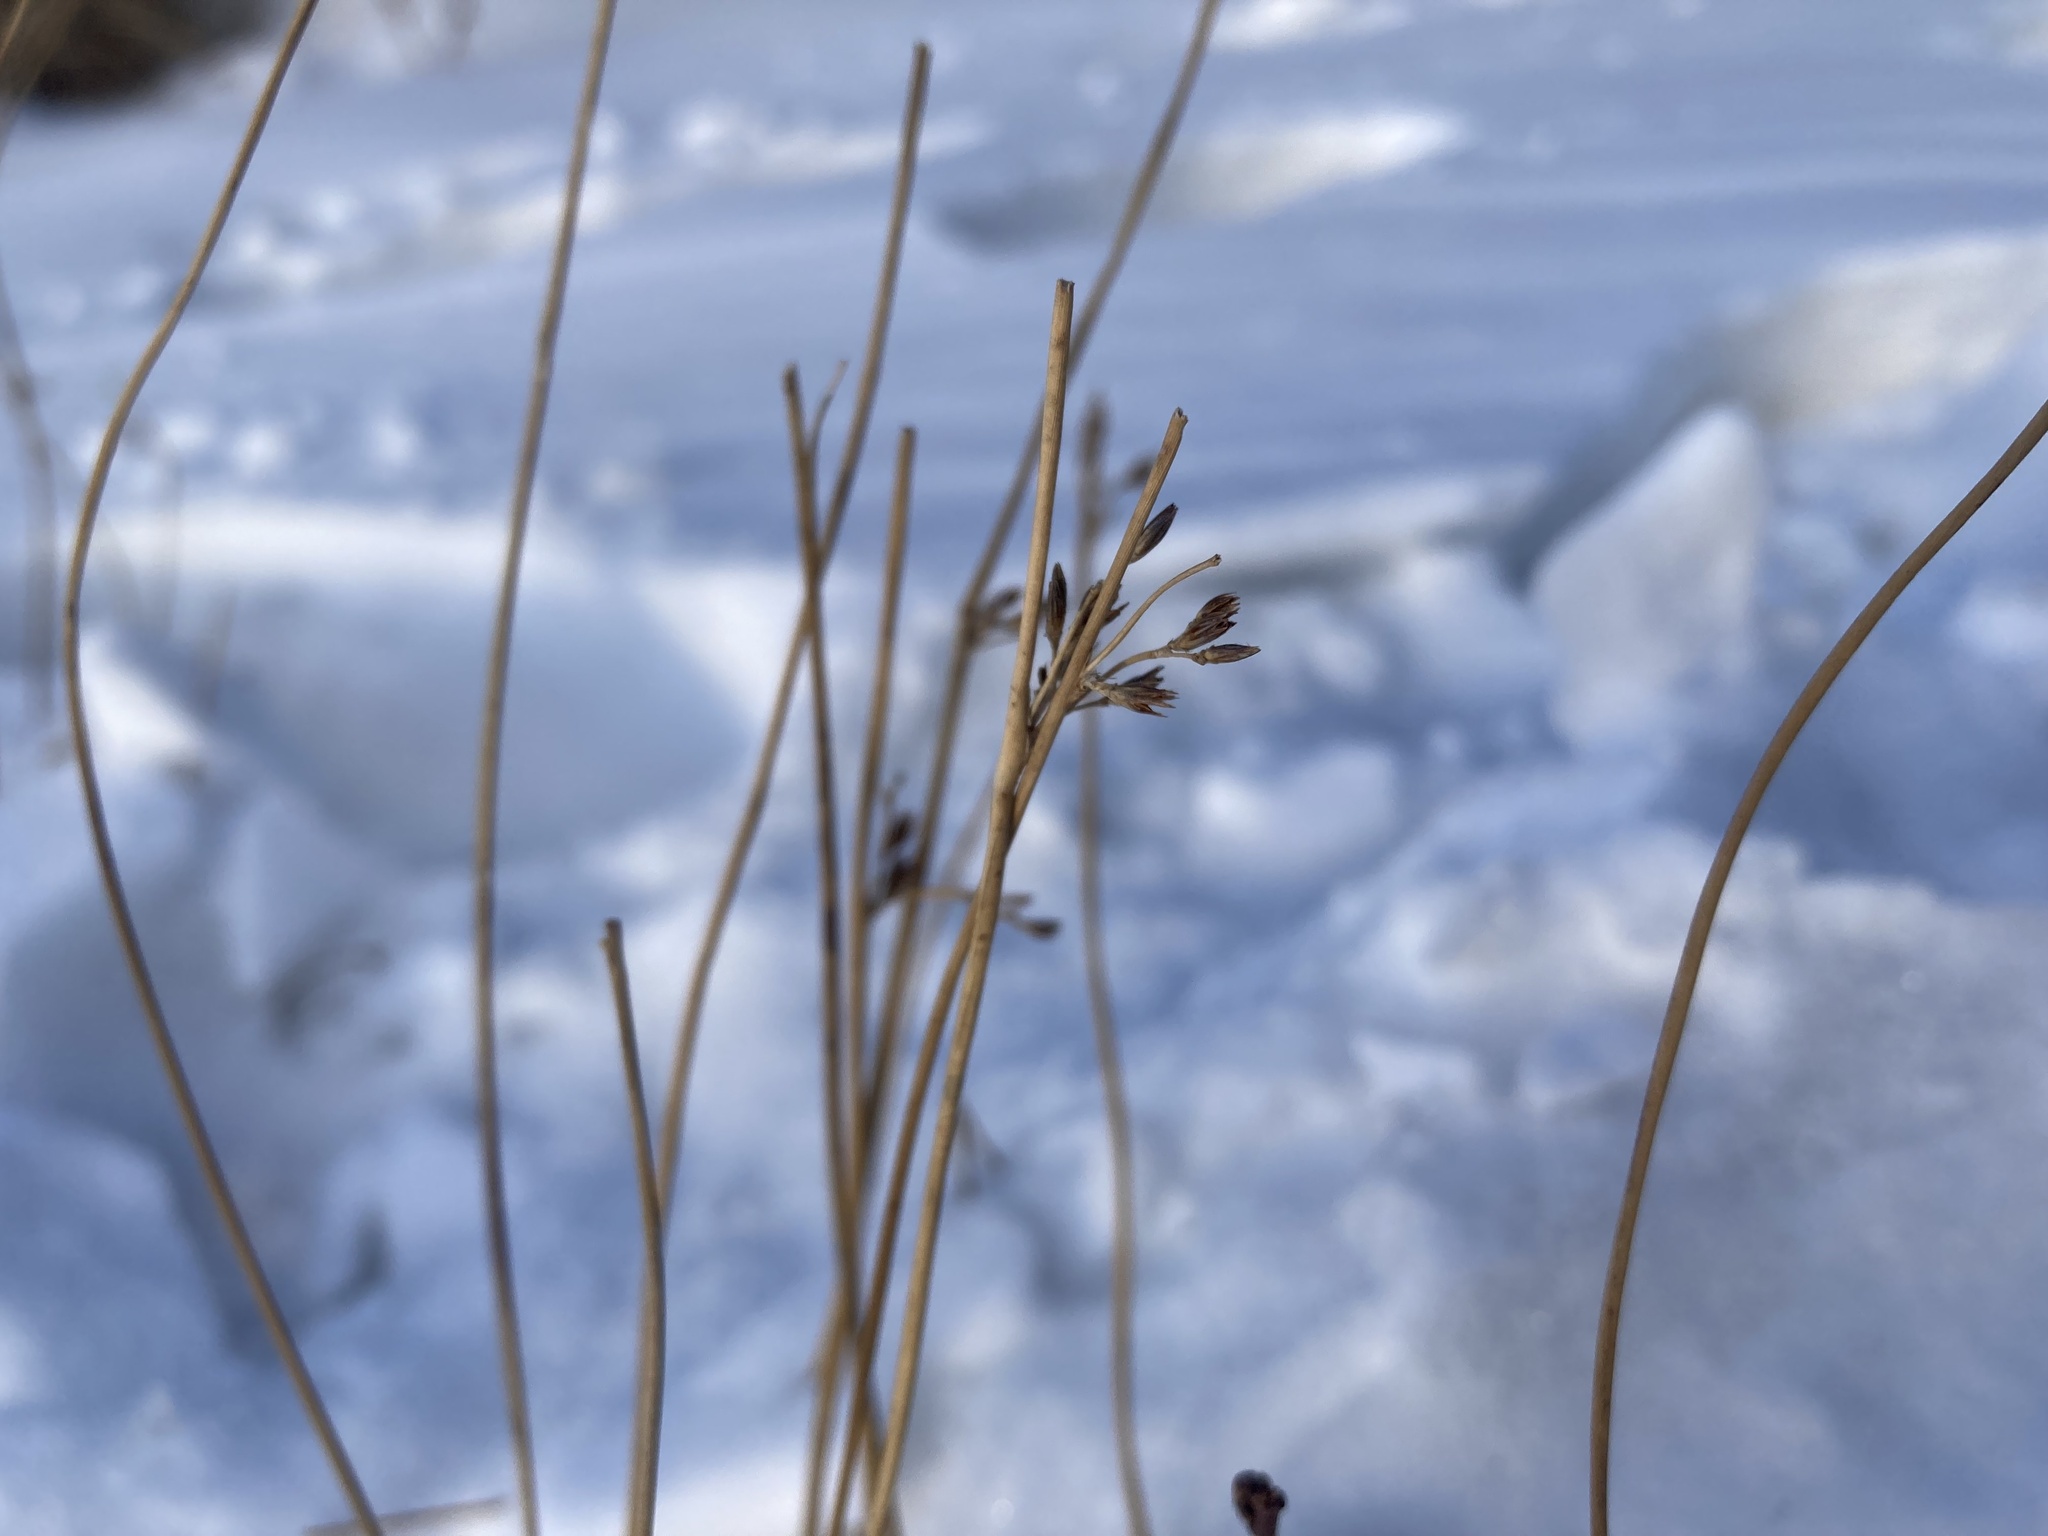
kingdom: Plantae
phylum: Tracheophyta
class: Liliopsida
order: Poales
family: Juncaceae
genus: Juncus
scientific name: Juncus balticus
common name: Baltic rush
